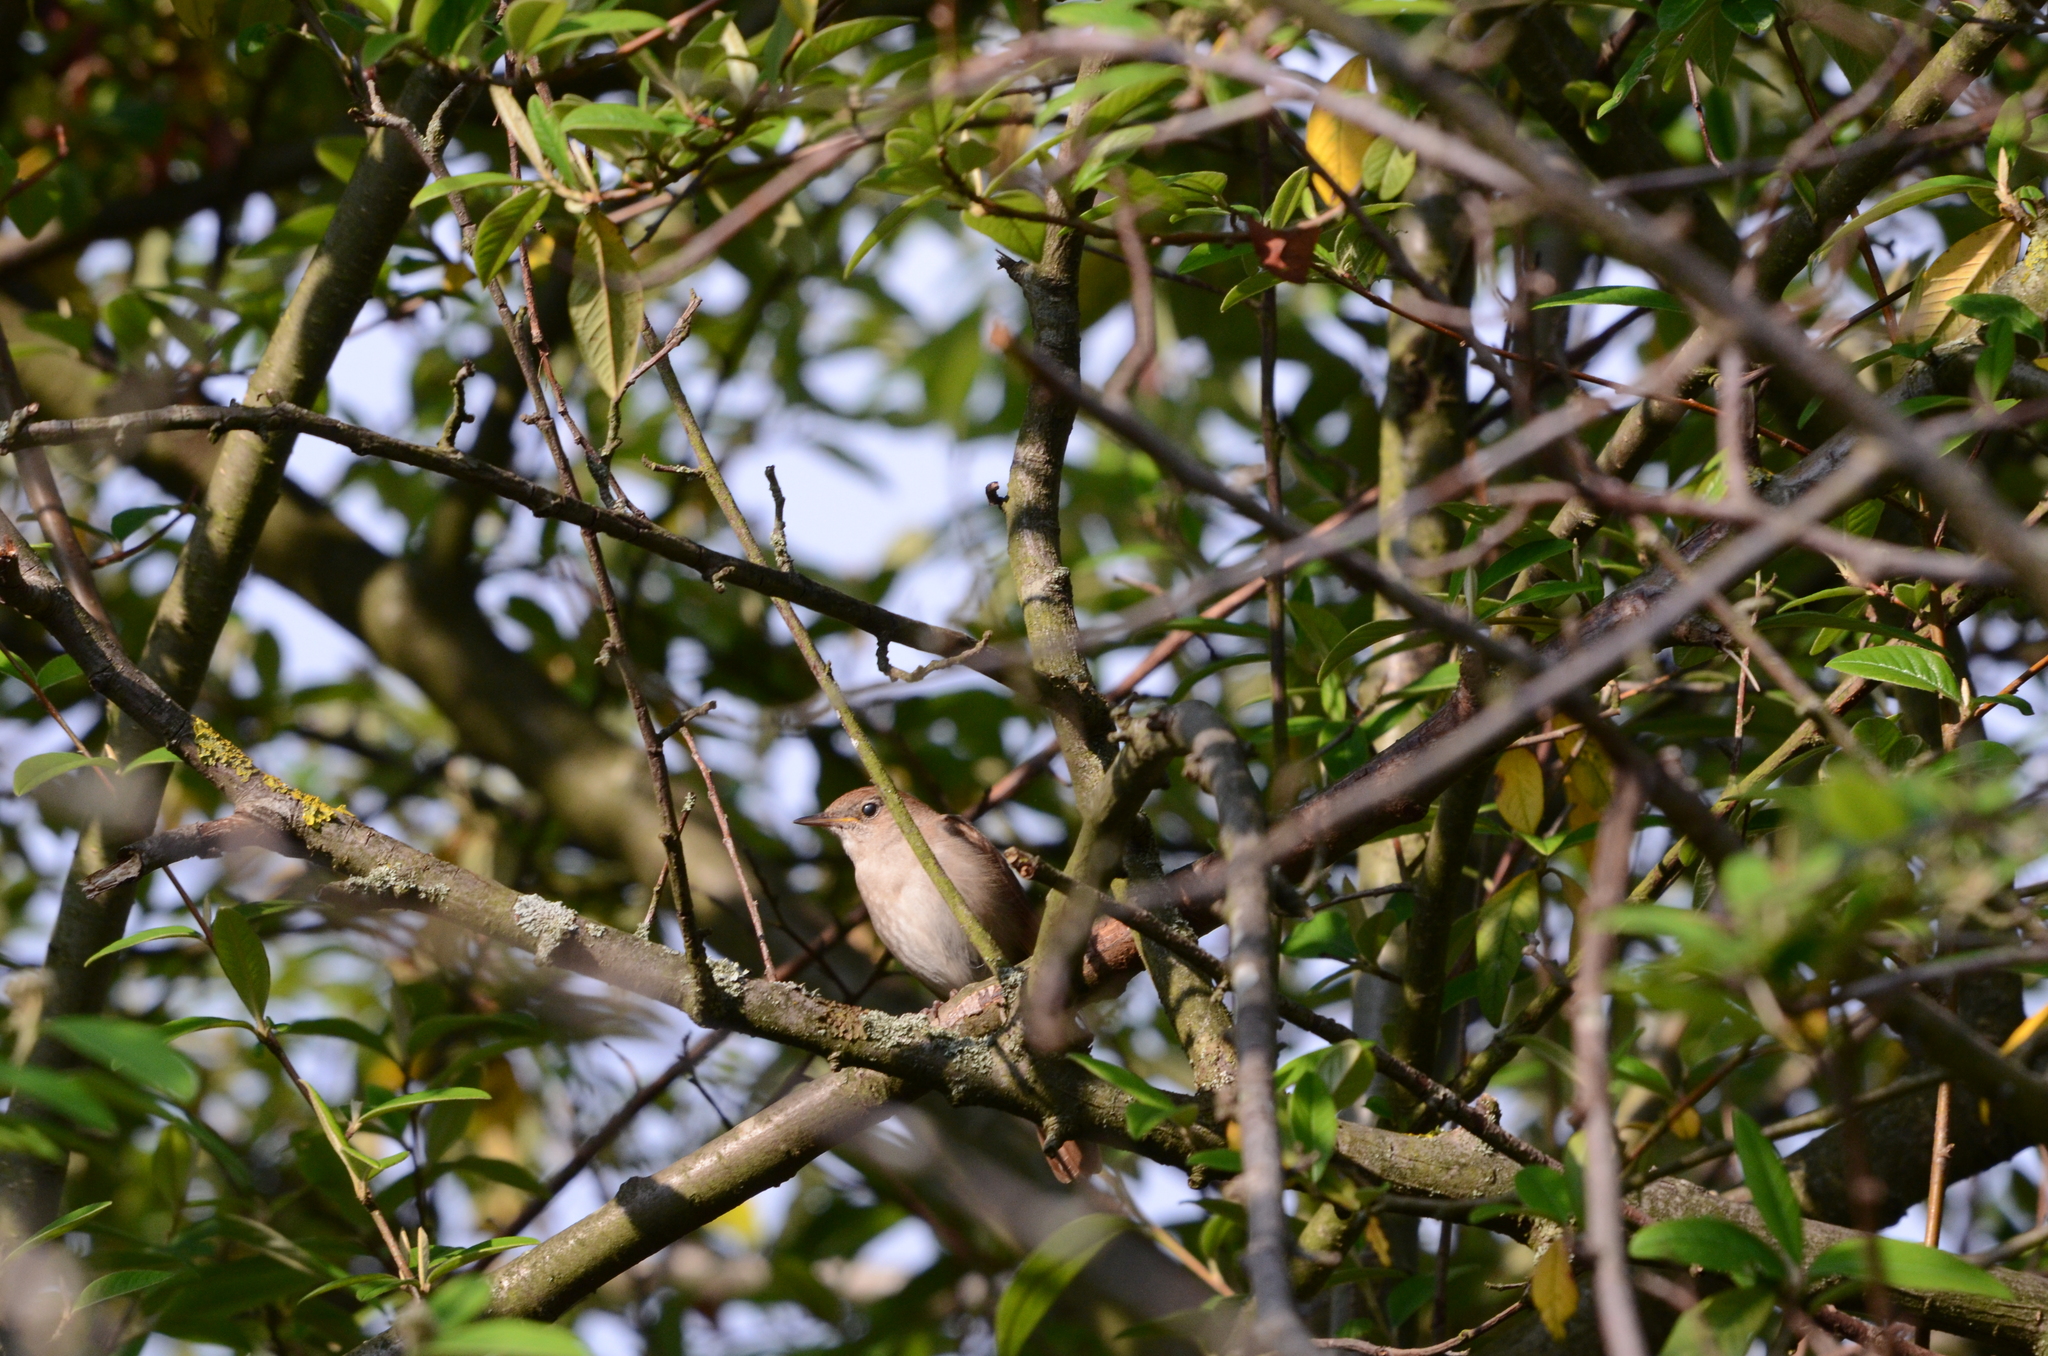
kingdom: Animalia
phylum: Chordata
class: Aves
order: Passeriformes
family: Muscicapidae
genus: Luscinia
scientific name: Luscinia megarhynchos
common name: Common nightingale
